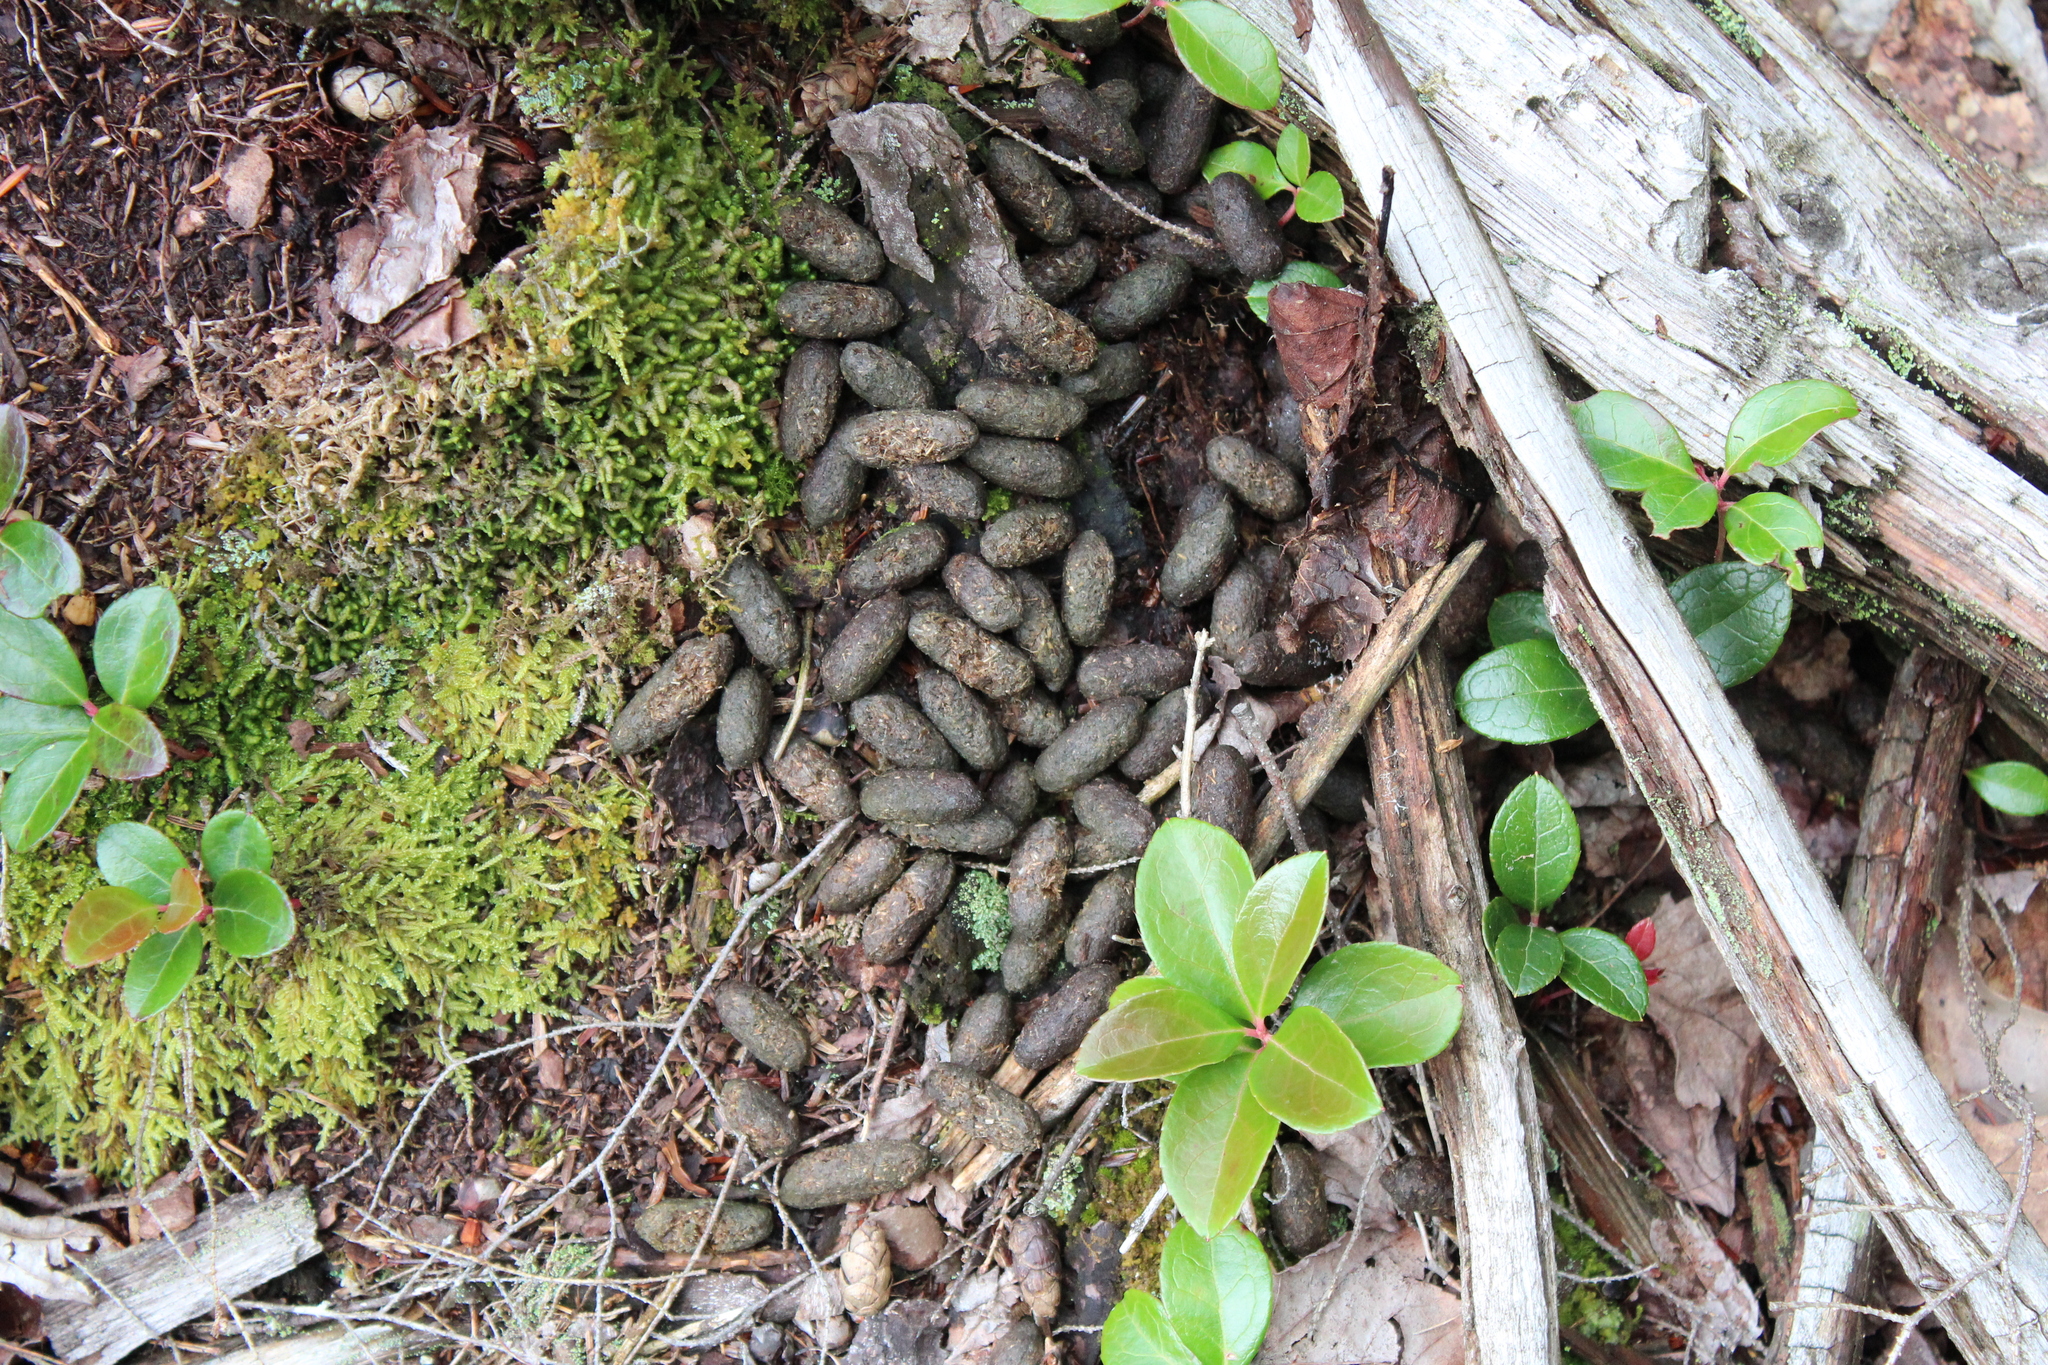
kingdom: Animalia
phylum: Chordata
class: Mammalia
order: Rodentia
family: Erethizontidae
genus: Erethizon
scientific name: Erethizon dorsatus
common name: North american porcupine
